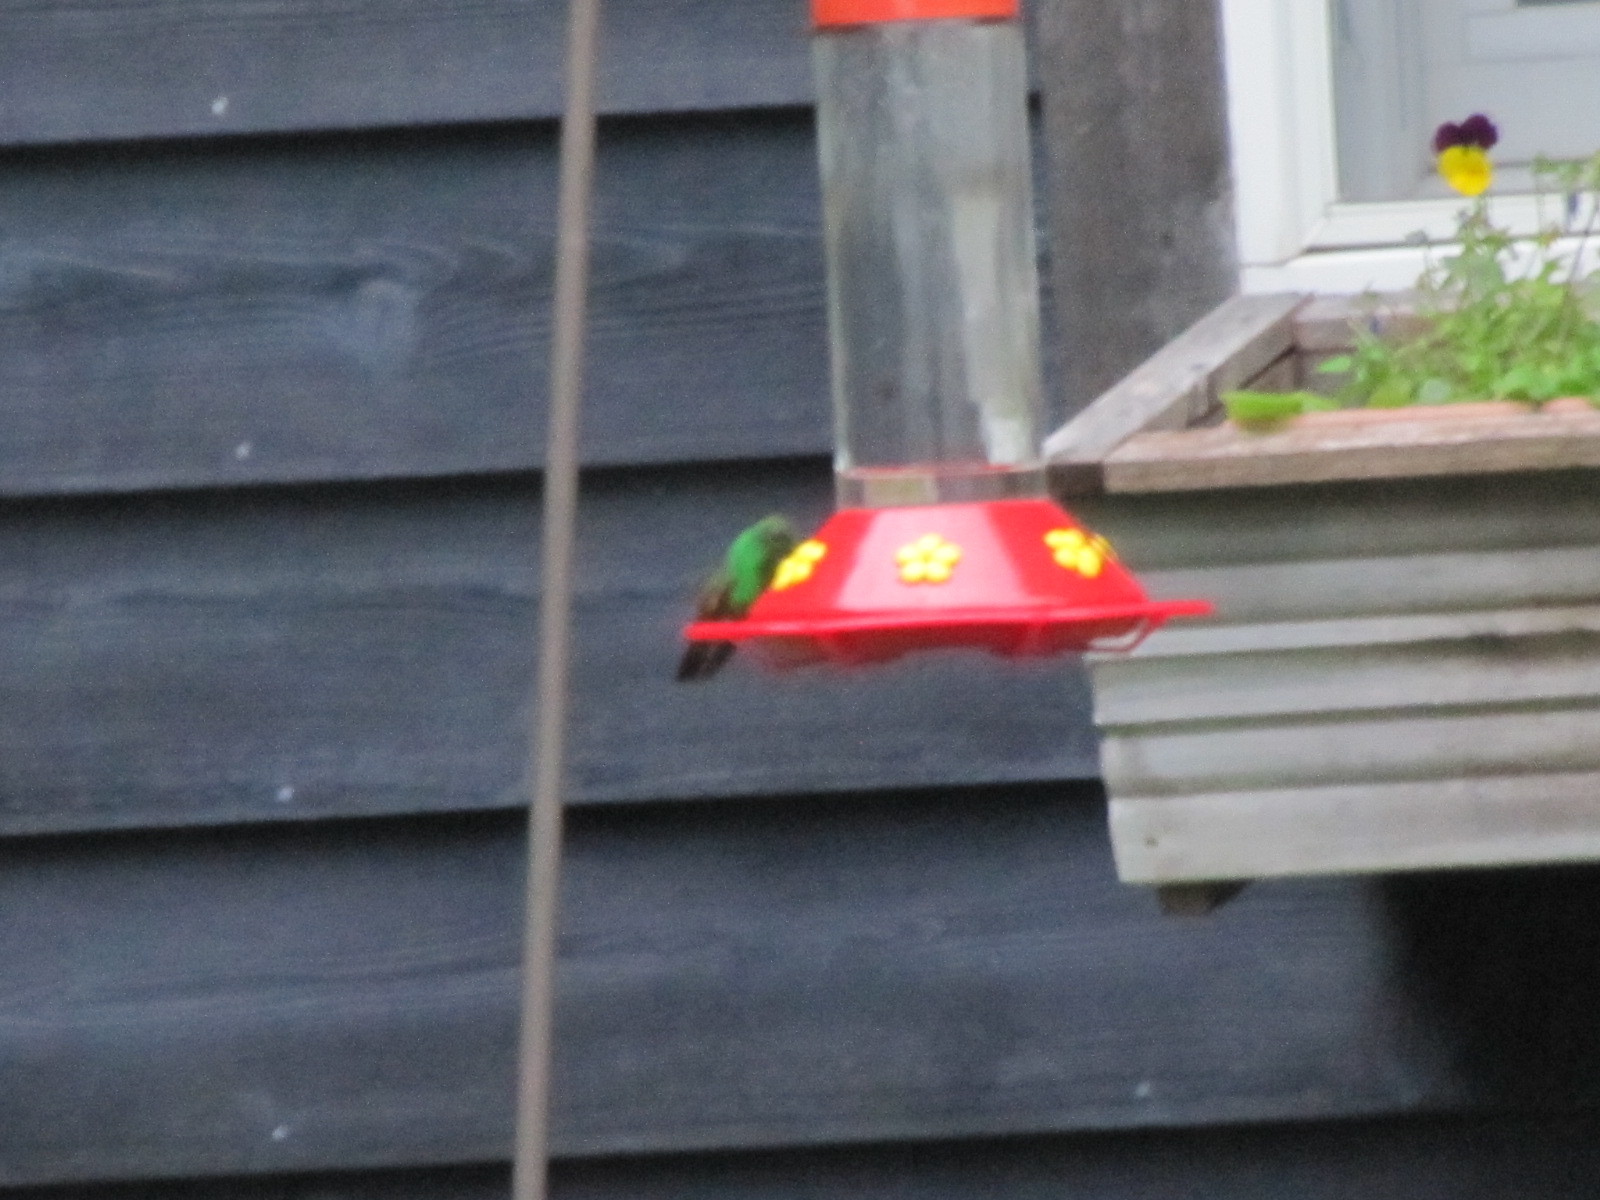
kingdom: Animalia
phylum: Chordata
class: Aves
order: Apodiformes
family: Trochilidae
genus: Saucerottia
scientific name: Saucerottia beryllina
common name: Berylline hummingbird
